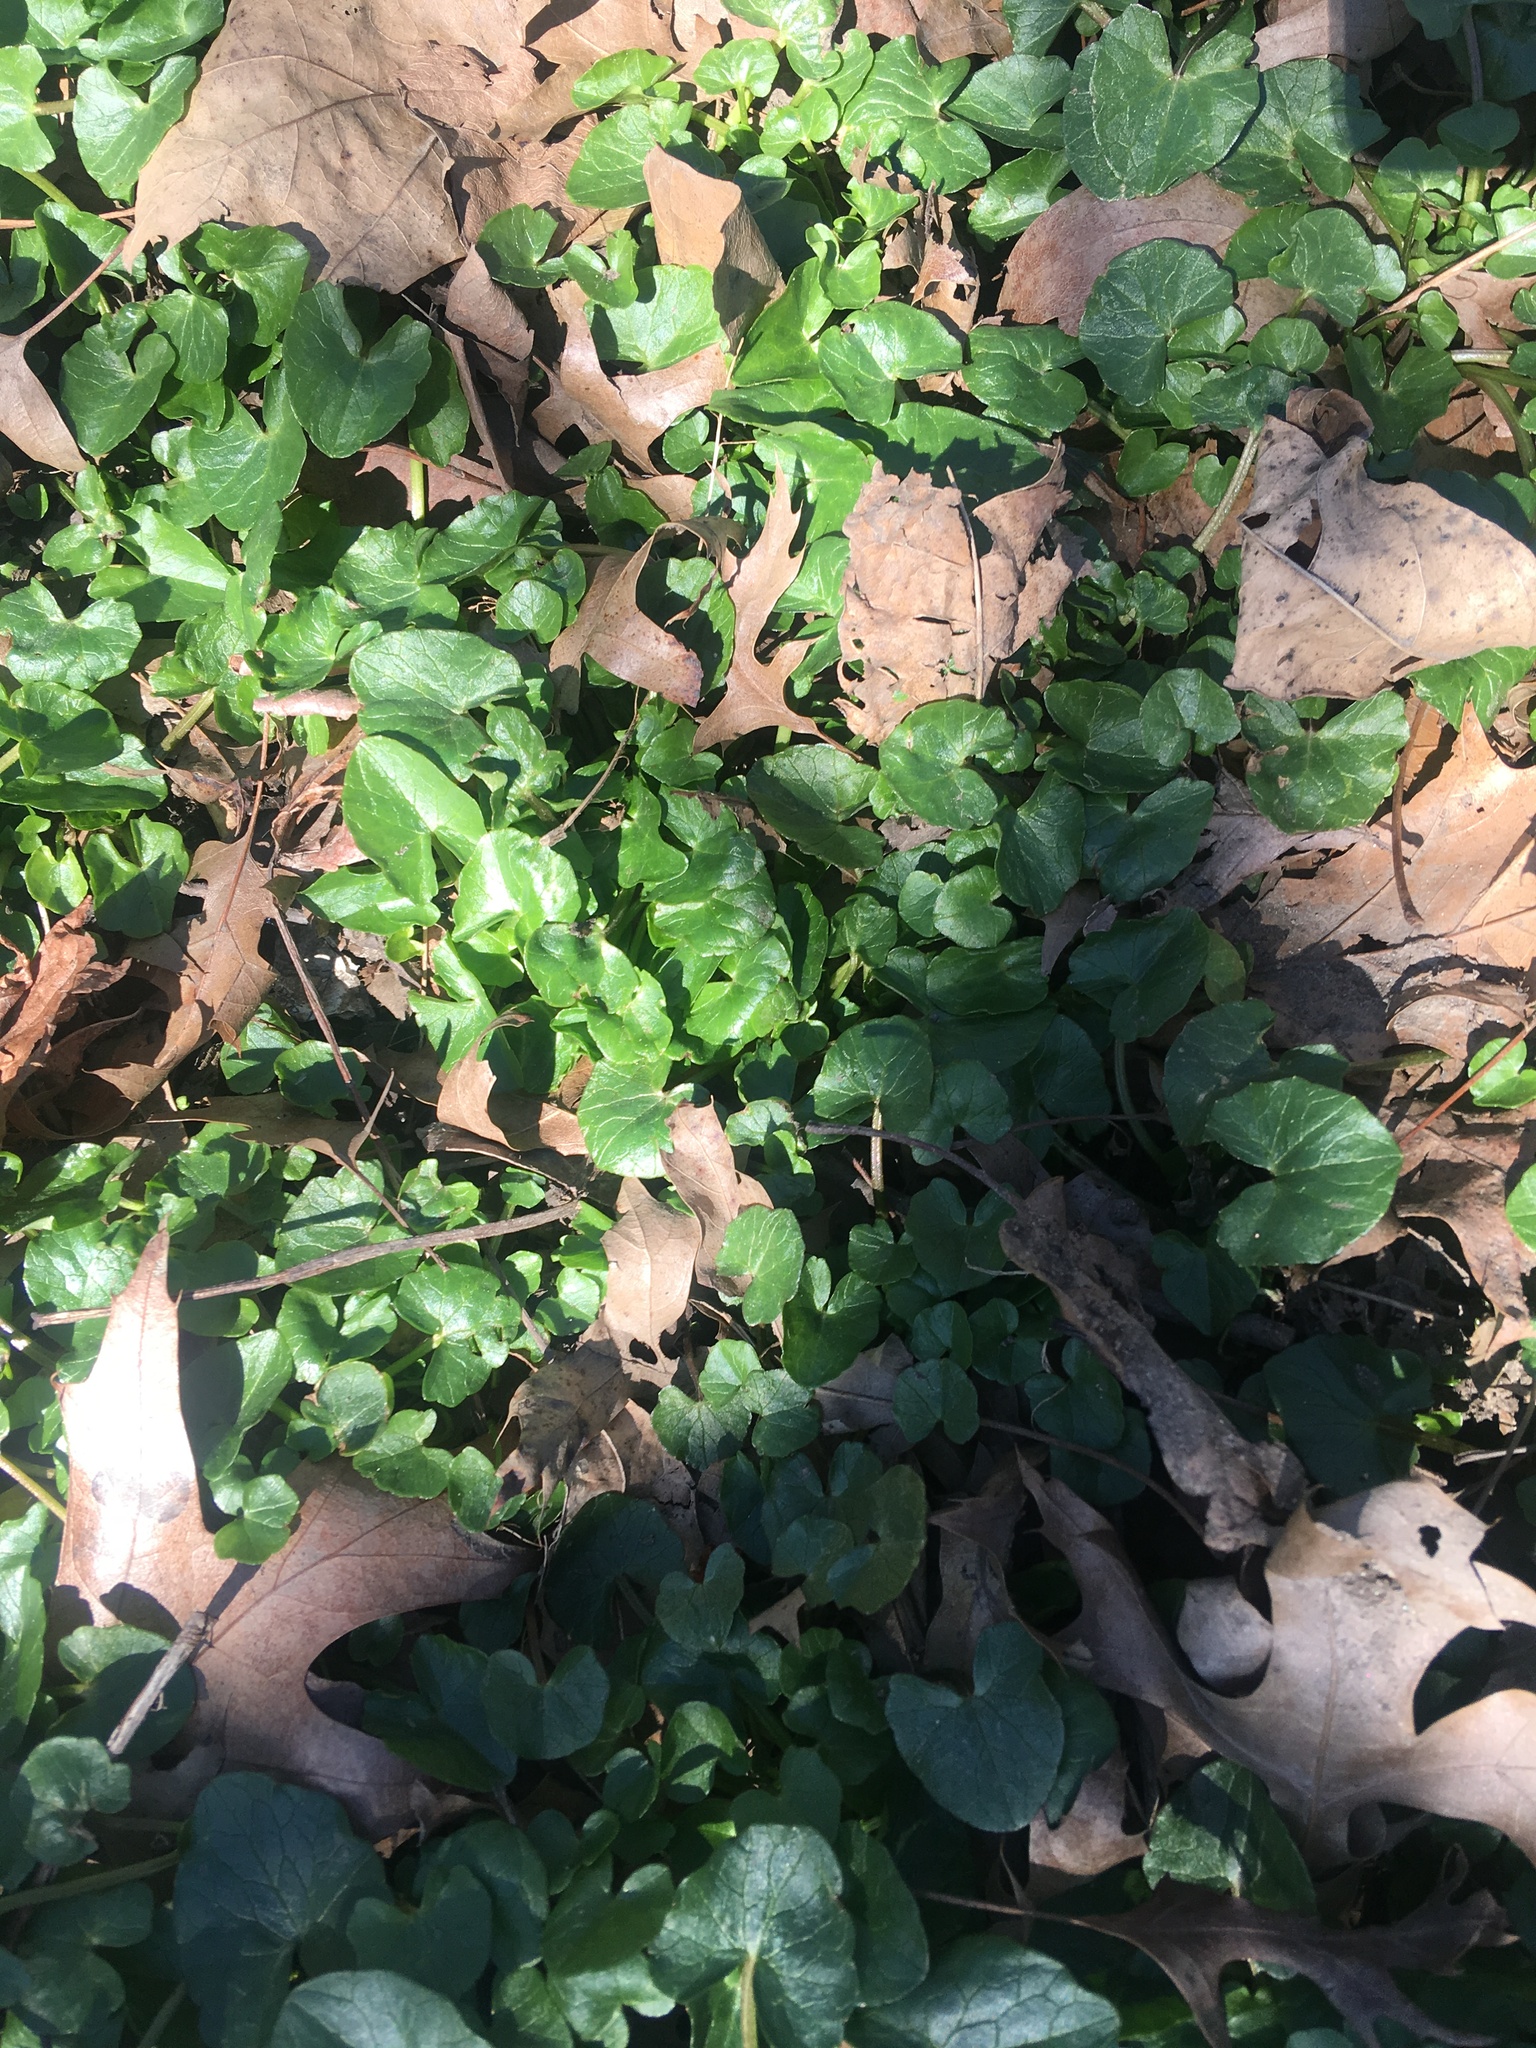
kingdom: Plantae
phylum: Tracheophyta
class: Magnoliopsida
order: Ranunculales
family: Ranunculaceae
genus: Ficaria
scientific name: Ficaria verna
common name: Lesser celandine
